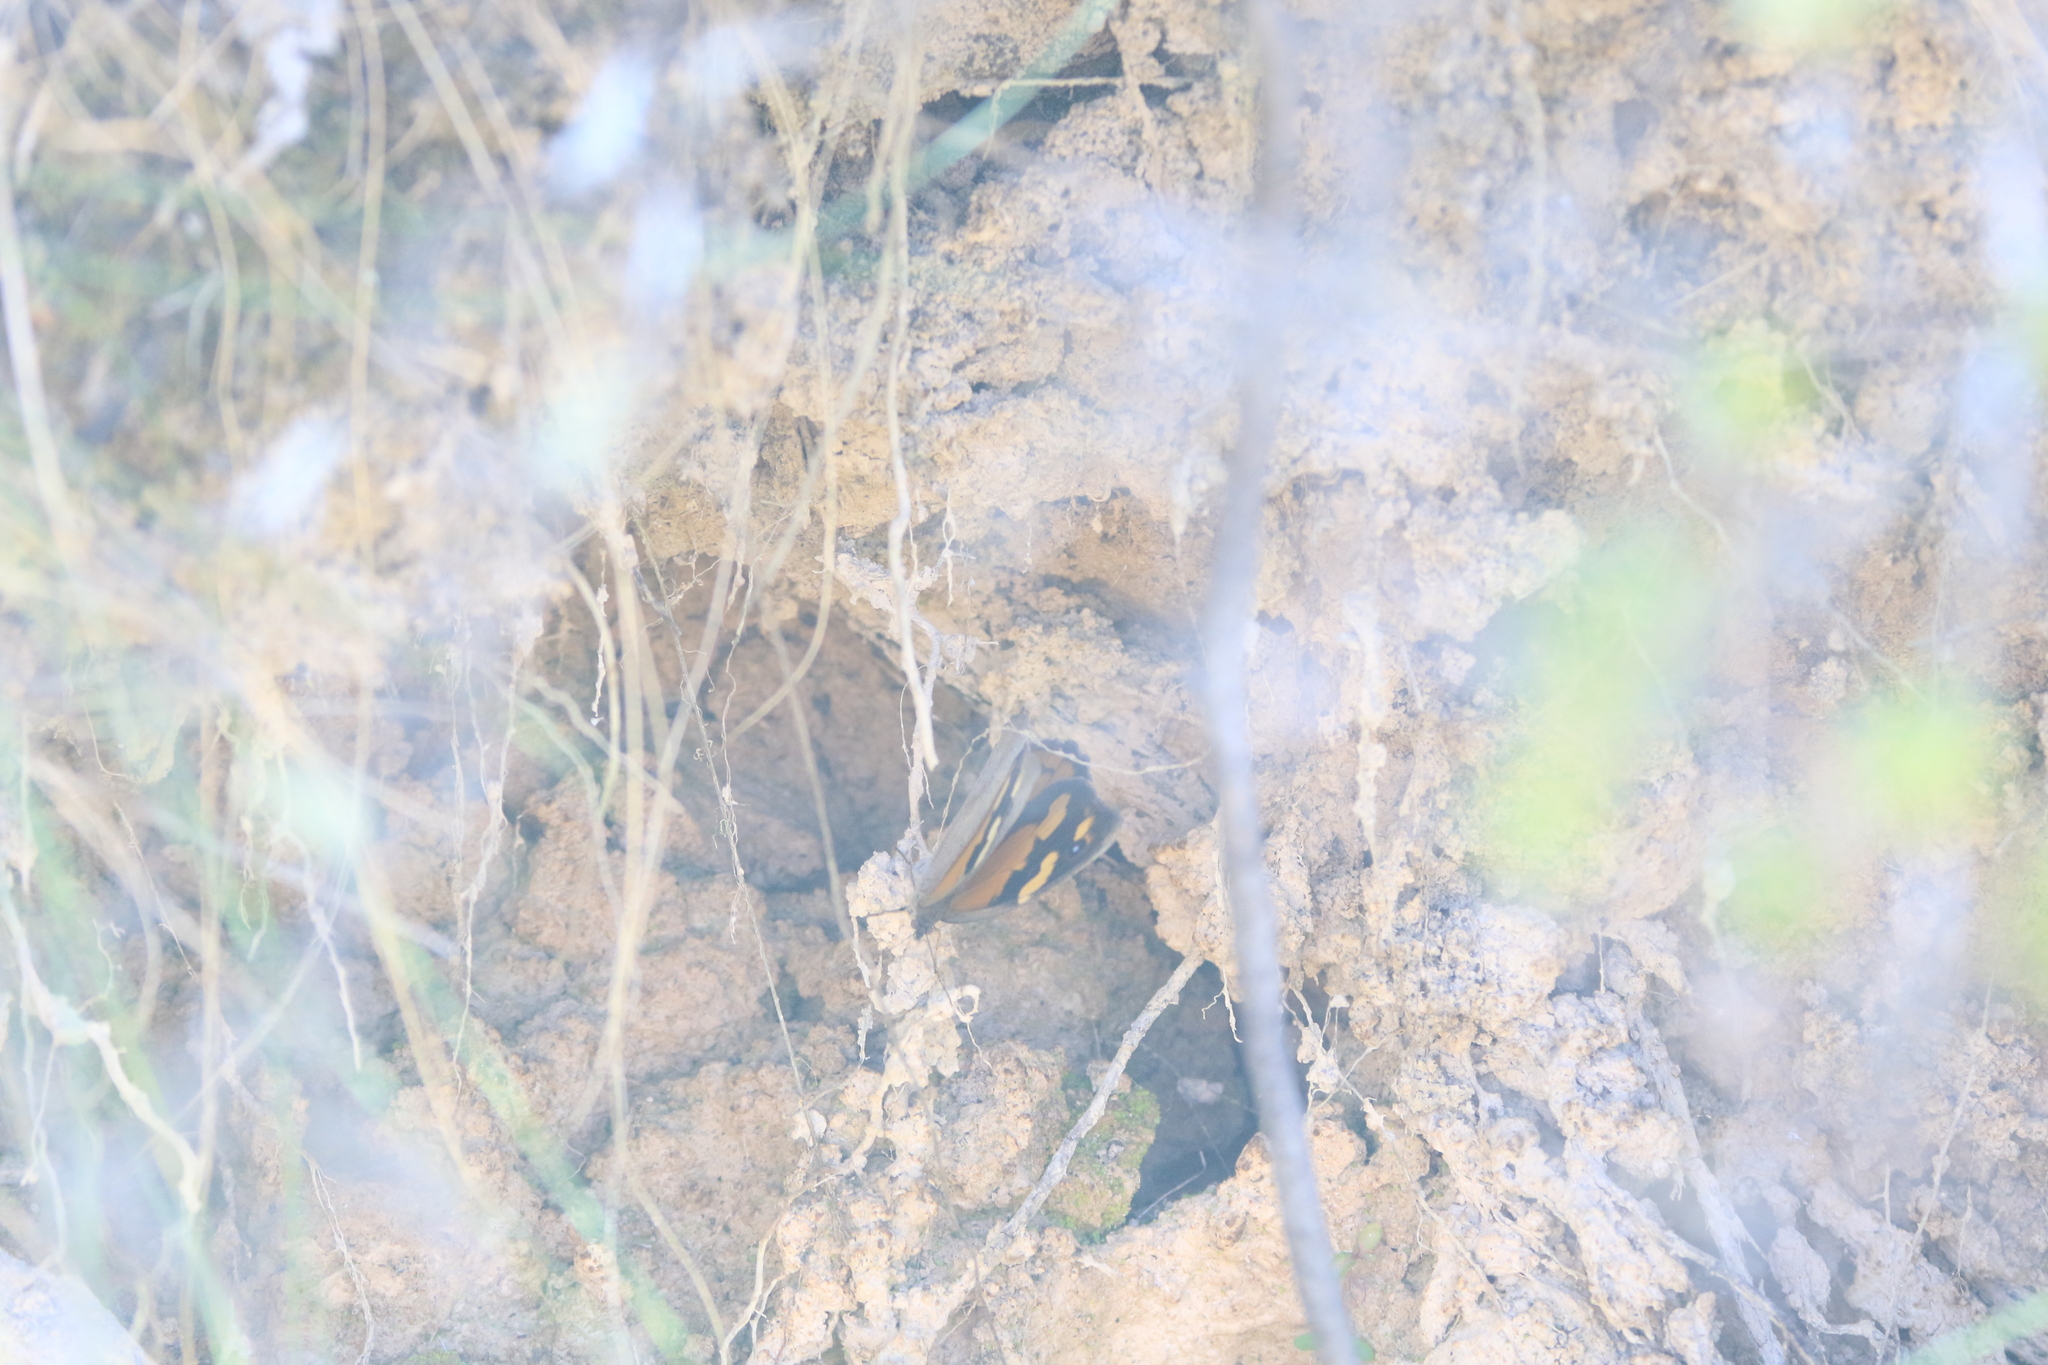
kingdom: Animalia
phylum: Arthropoda
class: Insecta
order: Lepidoptera
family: Nymphalidae
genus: Heteronympha
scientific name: Heteronympha merope
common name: Common brown
